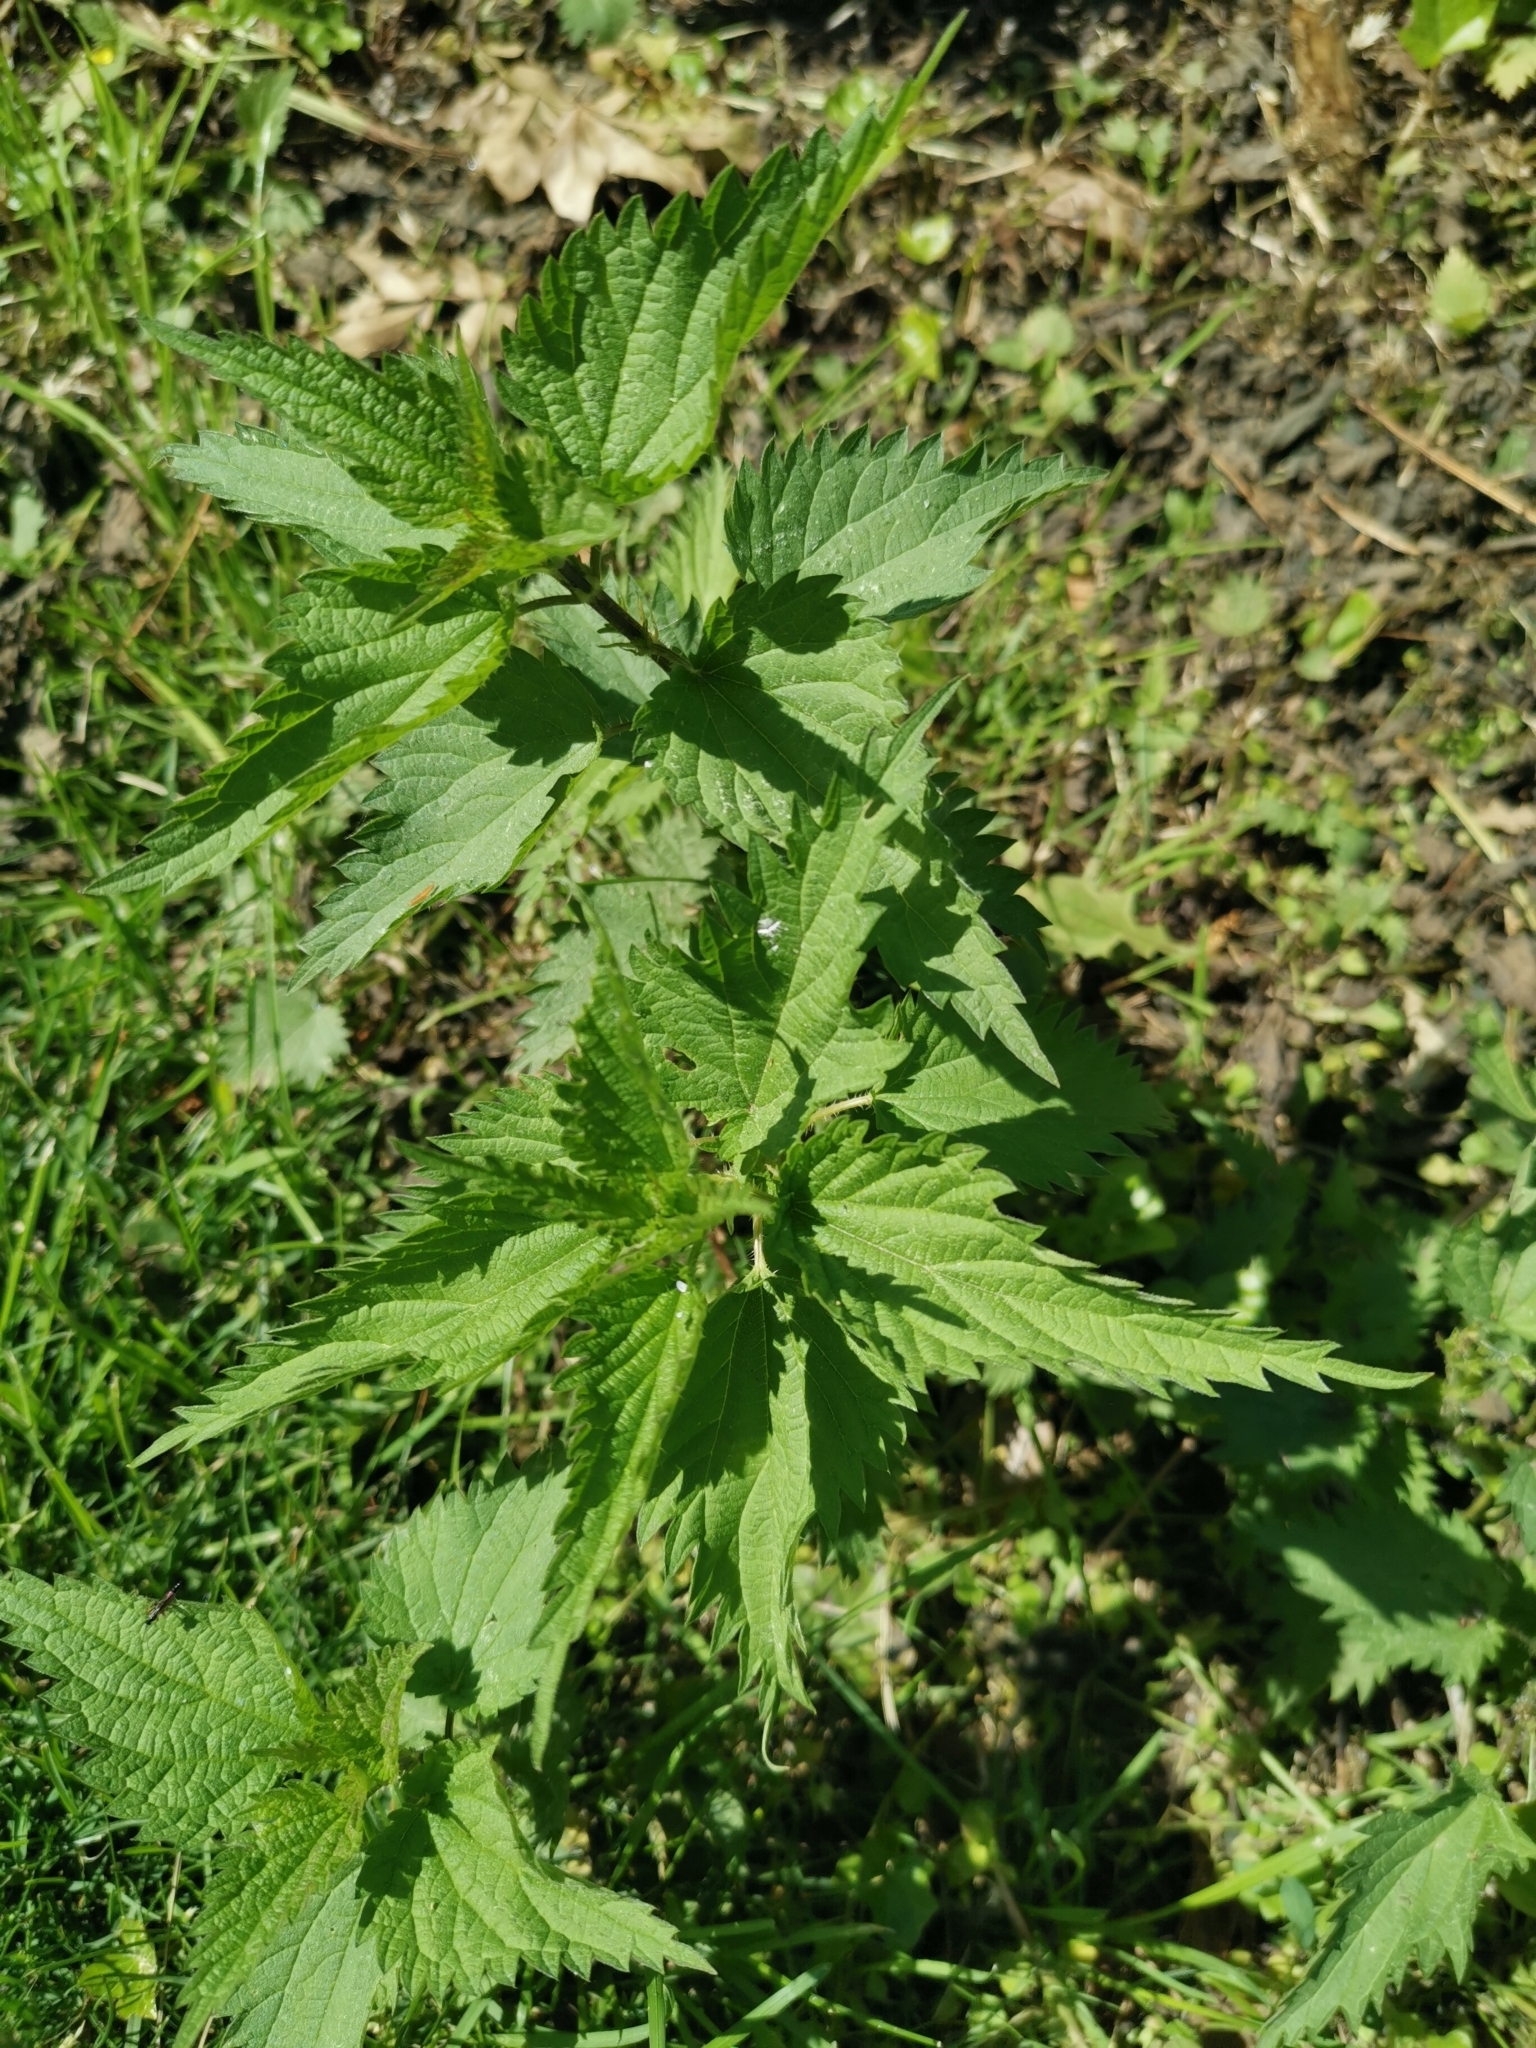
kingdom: Plantae
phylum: Tracheophyta
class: Magnoliopsida
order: Rosales
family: Urticaceae
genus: Urtica
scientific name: Urtica dioica
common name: Common nettle
